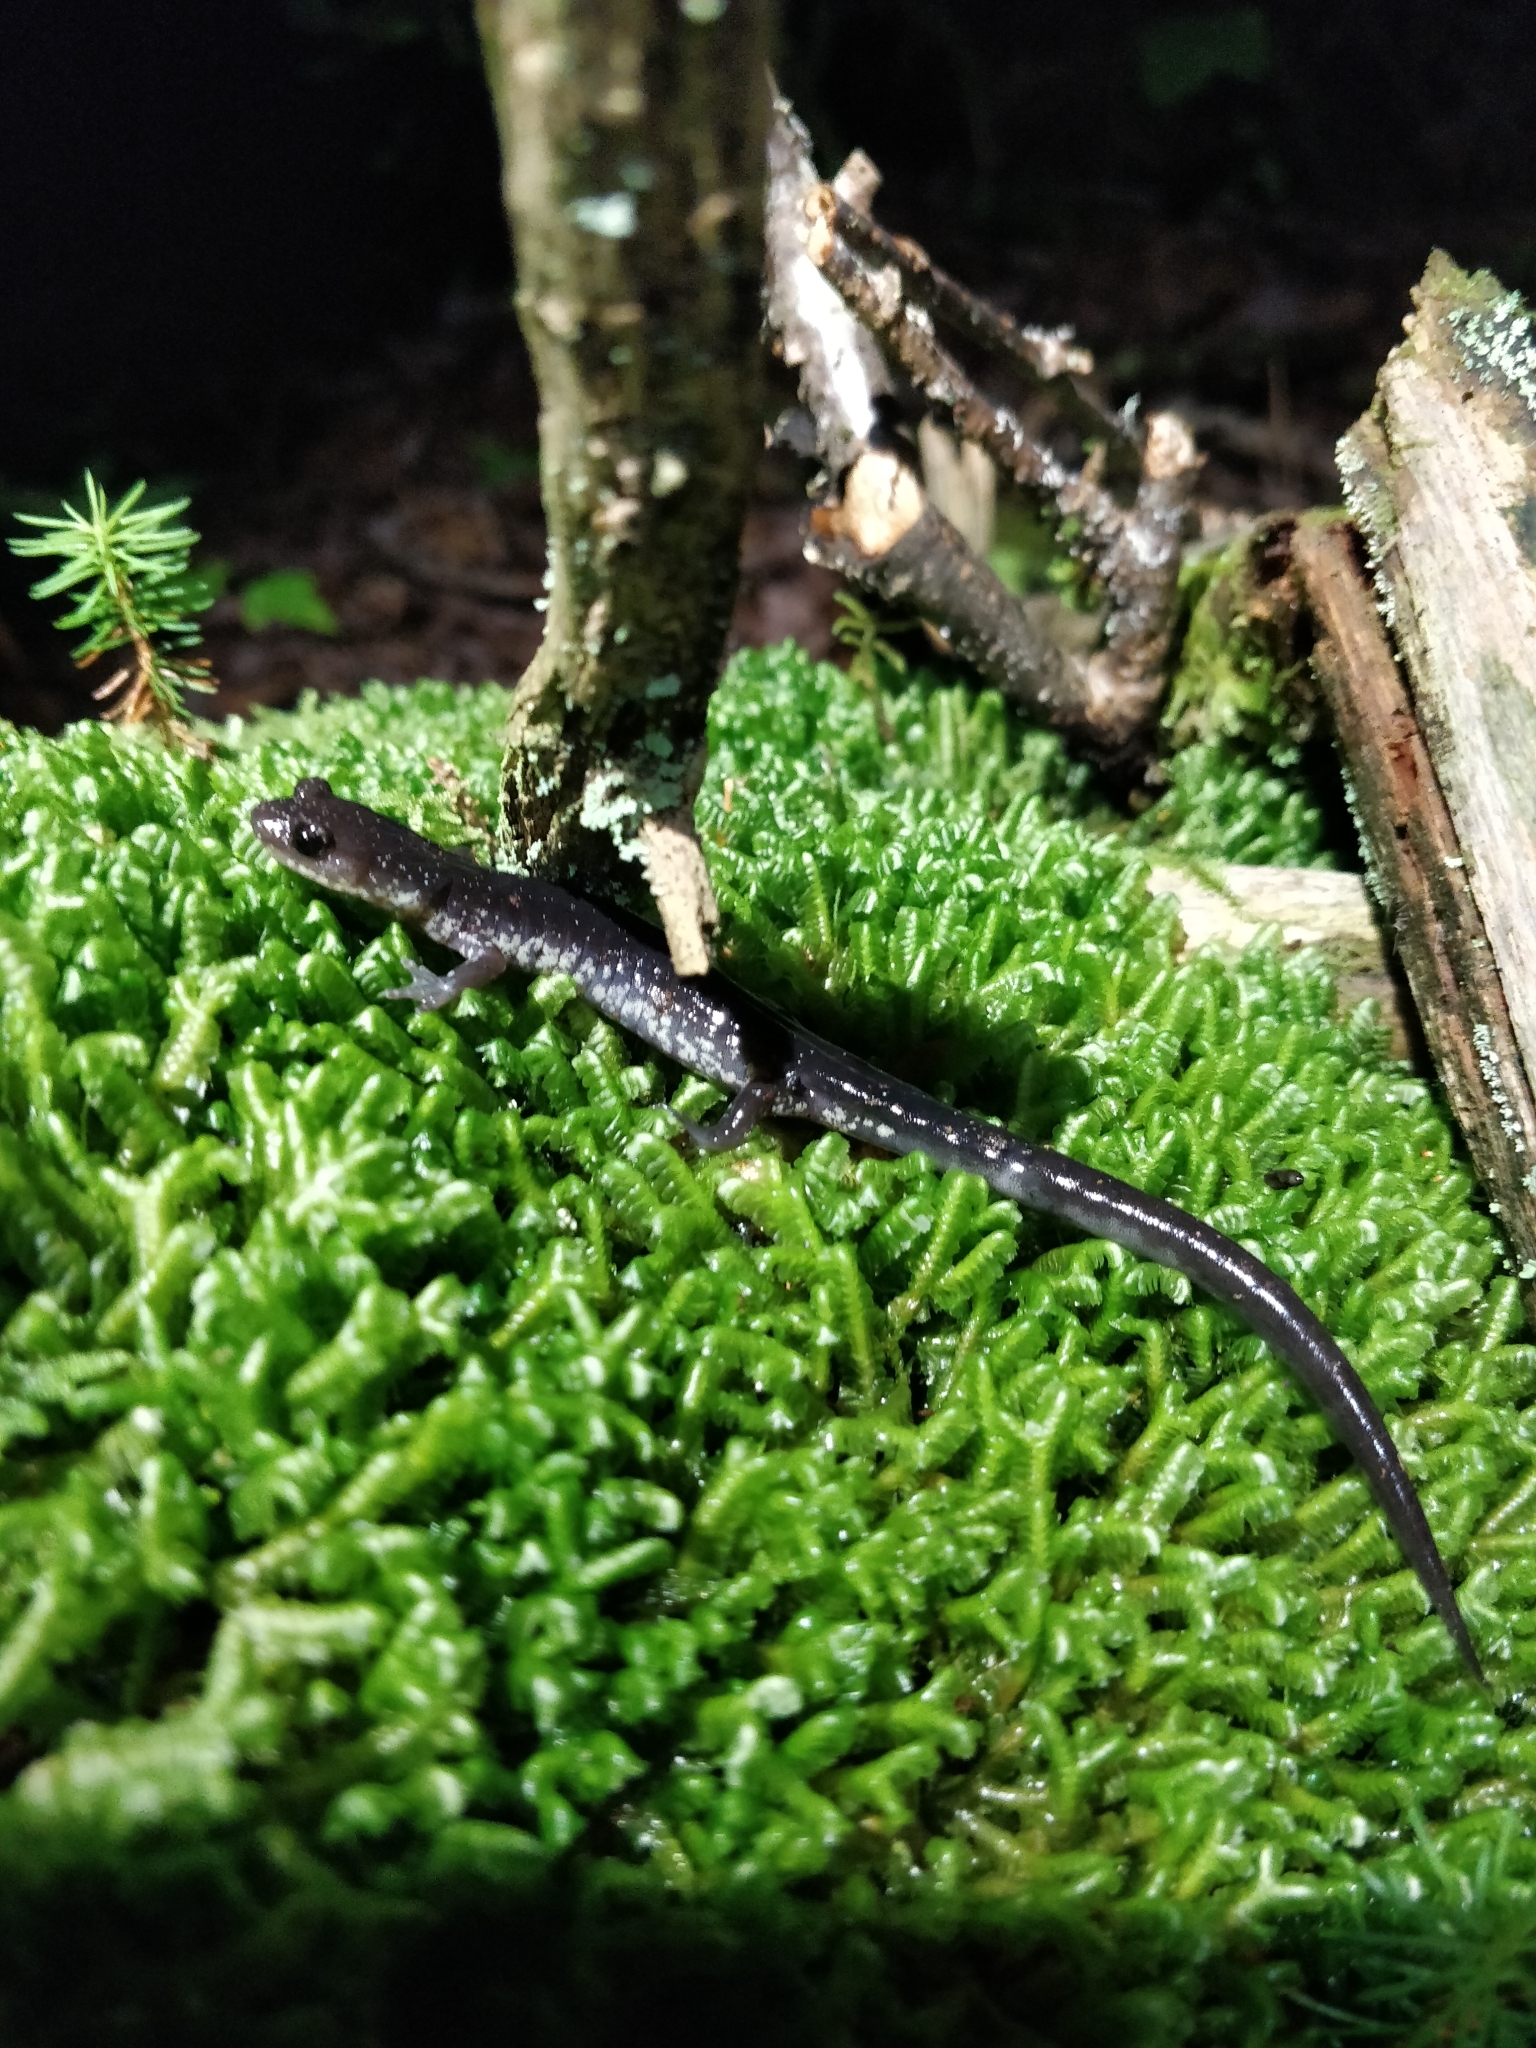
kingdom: Animalia
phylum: Chordata
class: Amphibia
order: Caudata
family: Plethodontidae
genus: Plethodon
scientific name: Plethodon wehrlei
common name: Wehrle's salamander
